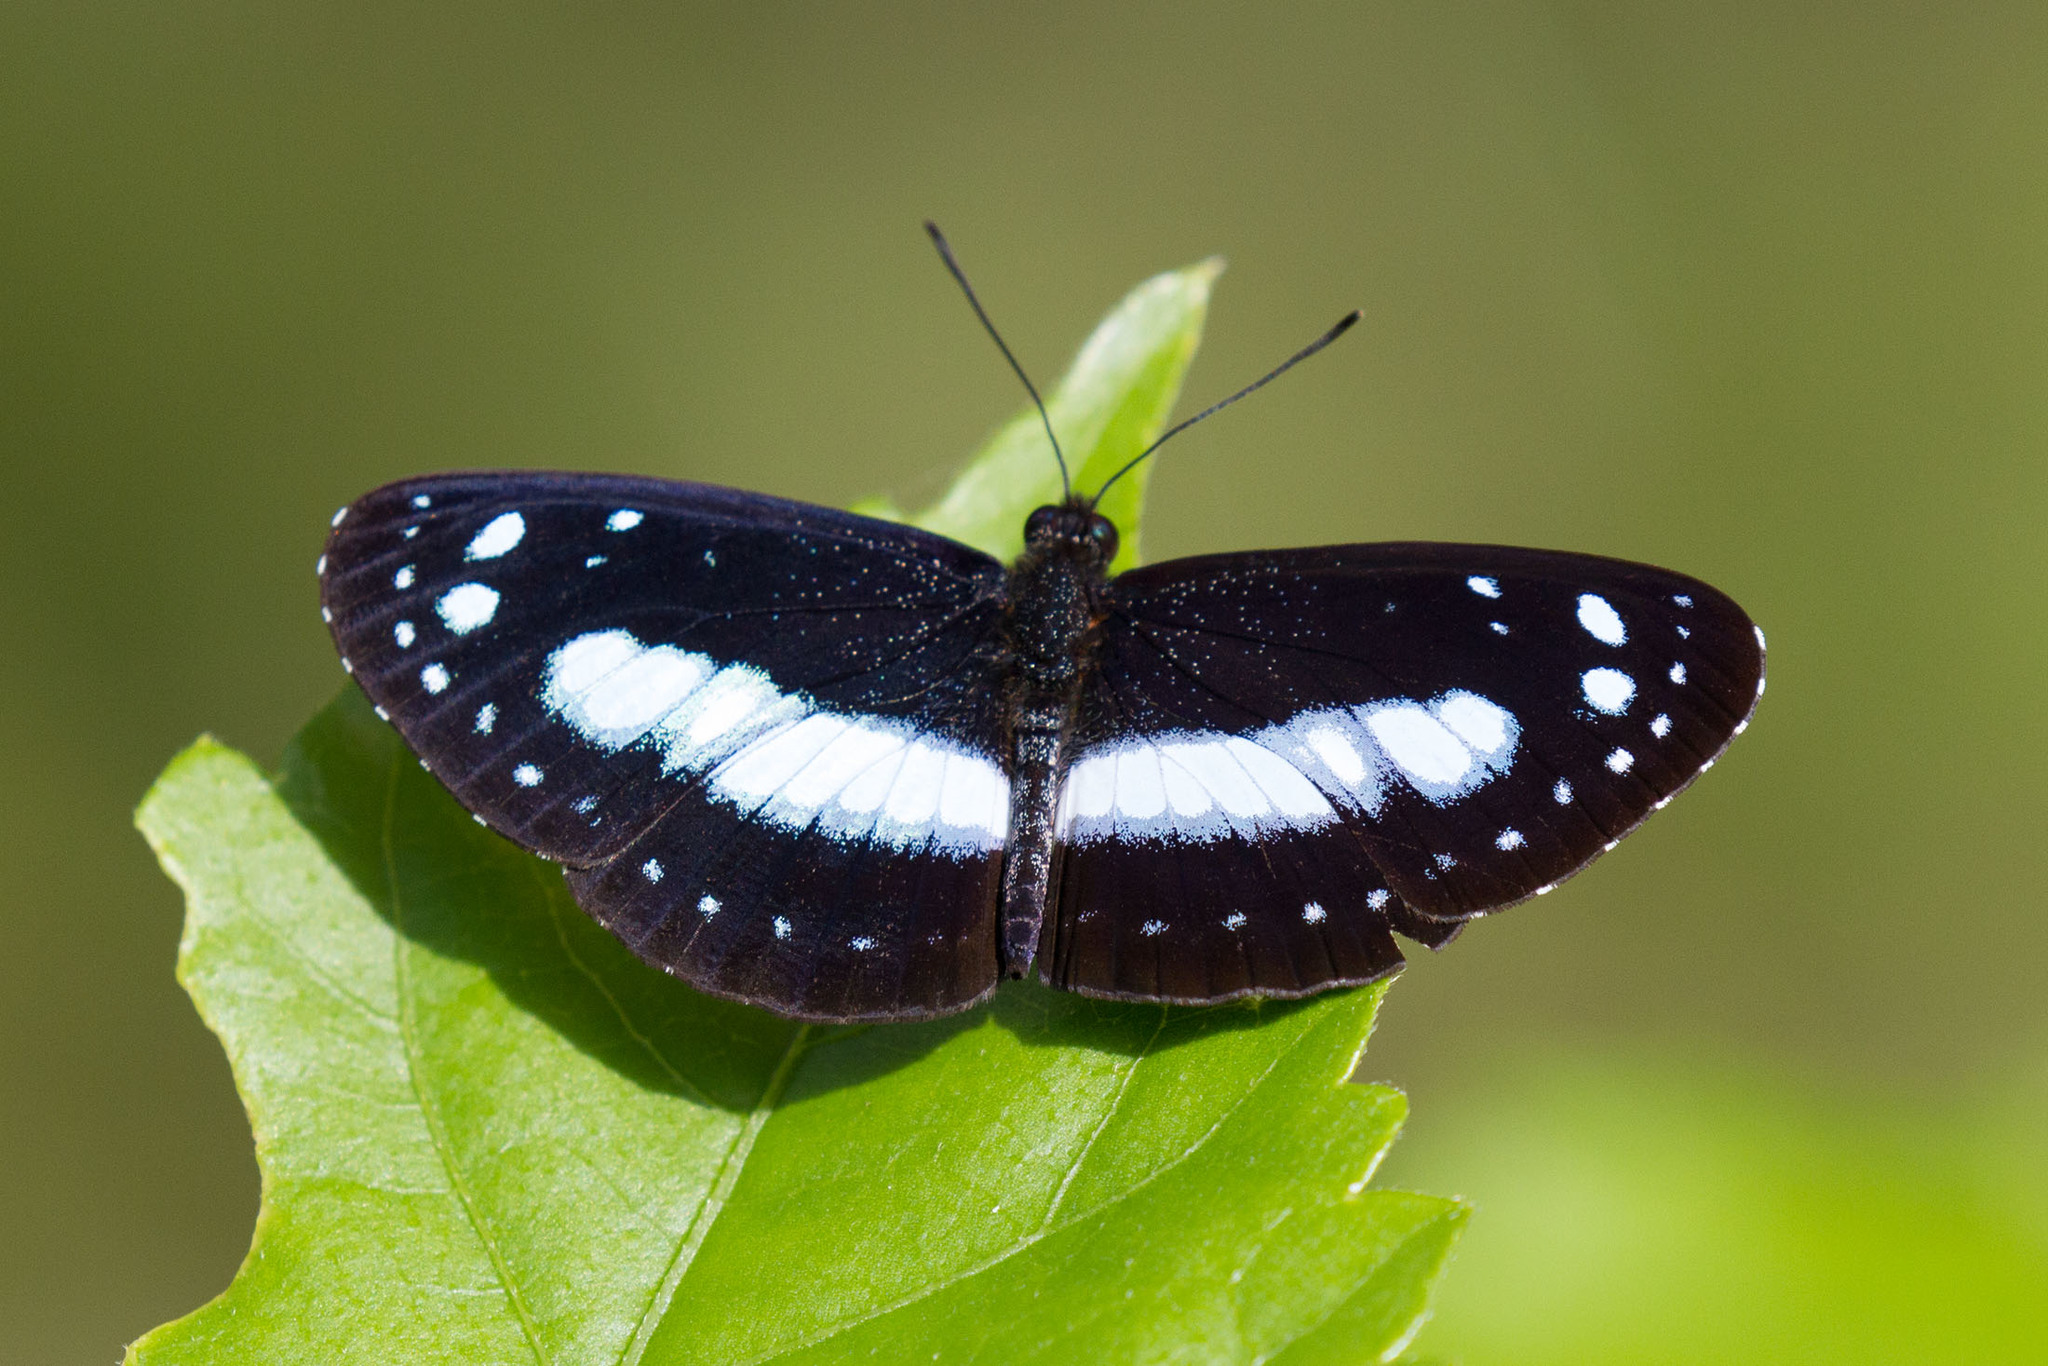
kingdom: Animalia
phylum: Arthropoda
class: Insecta
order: Lepidoptera
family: Nymphalidae
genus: Pantoporia
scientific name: Pantoporia venilia
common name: Cape york aeroplane
